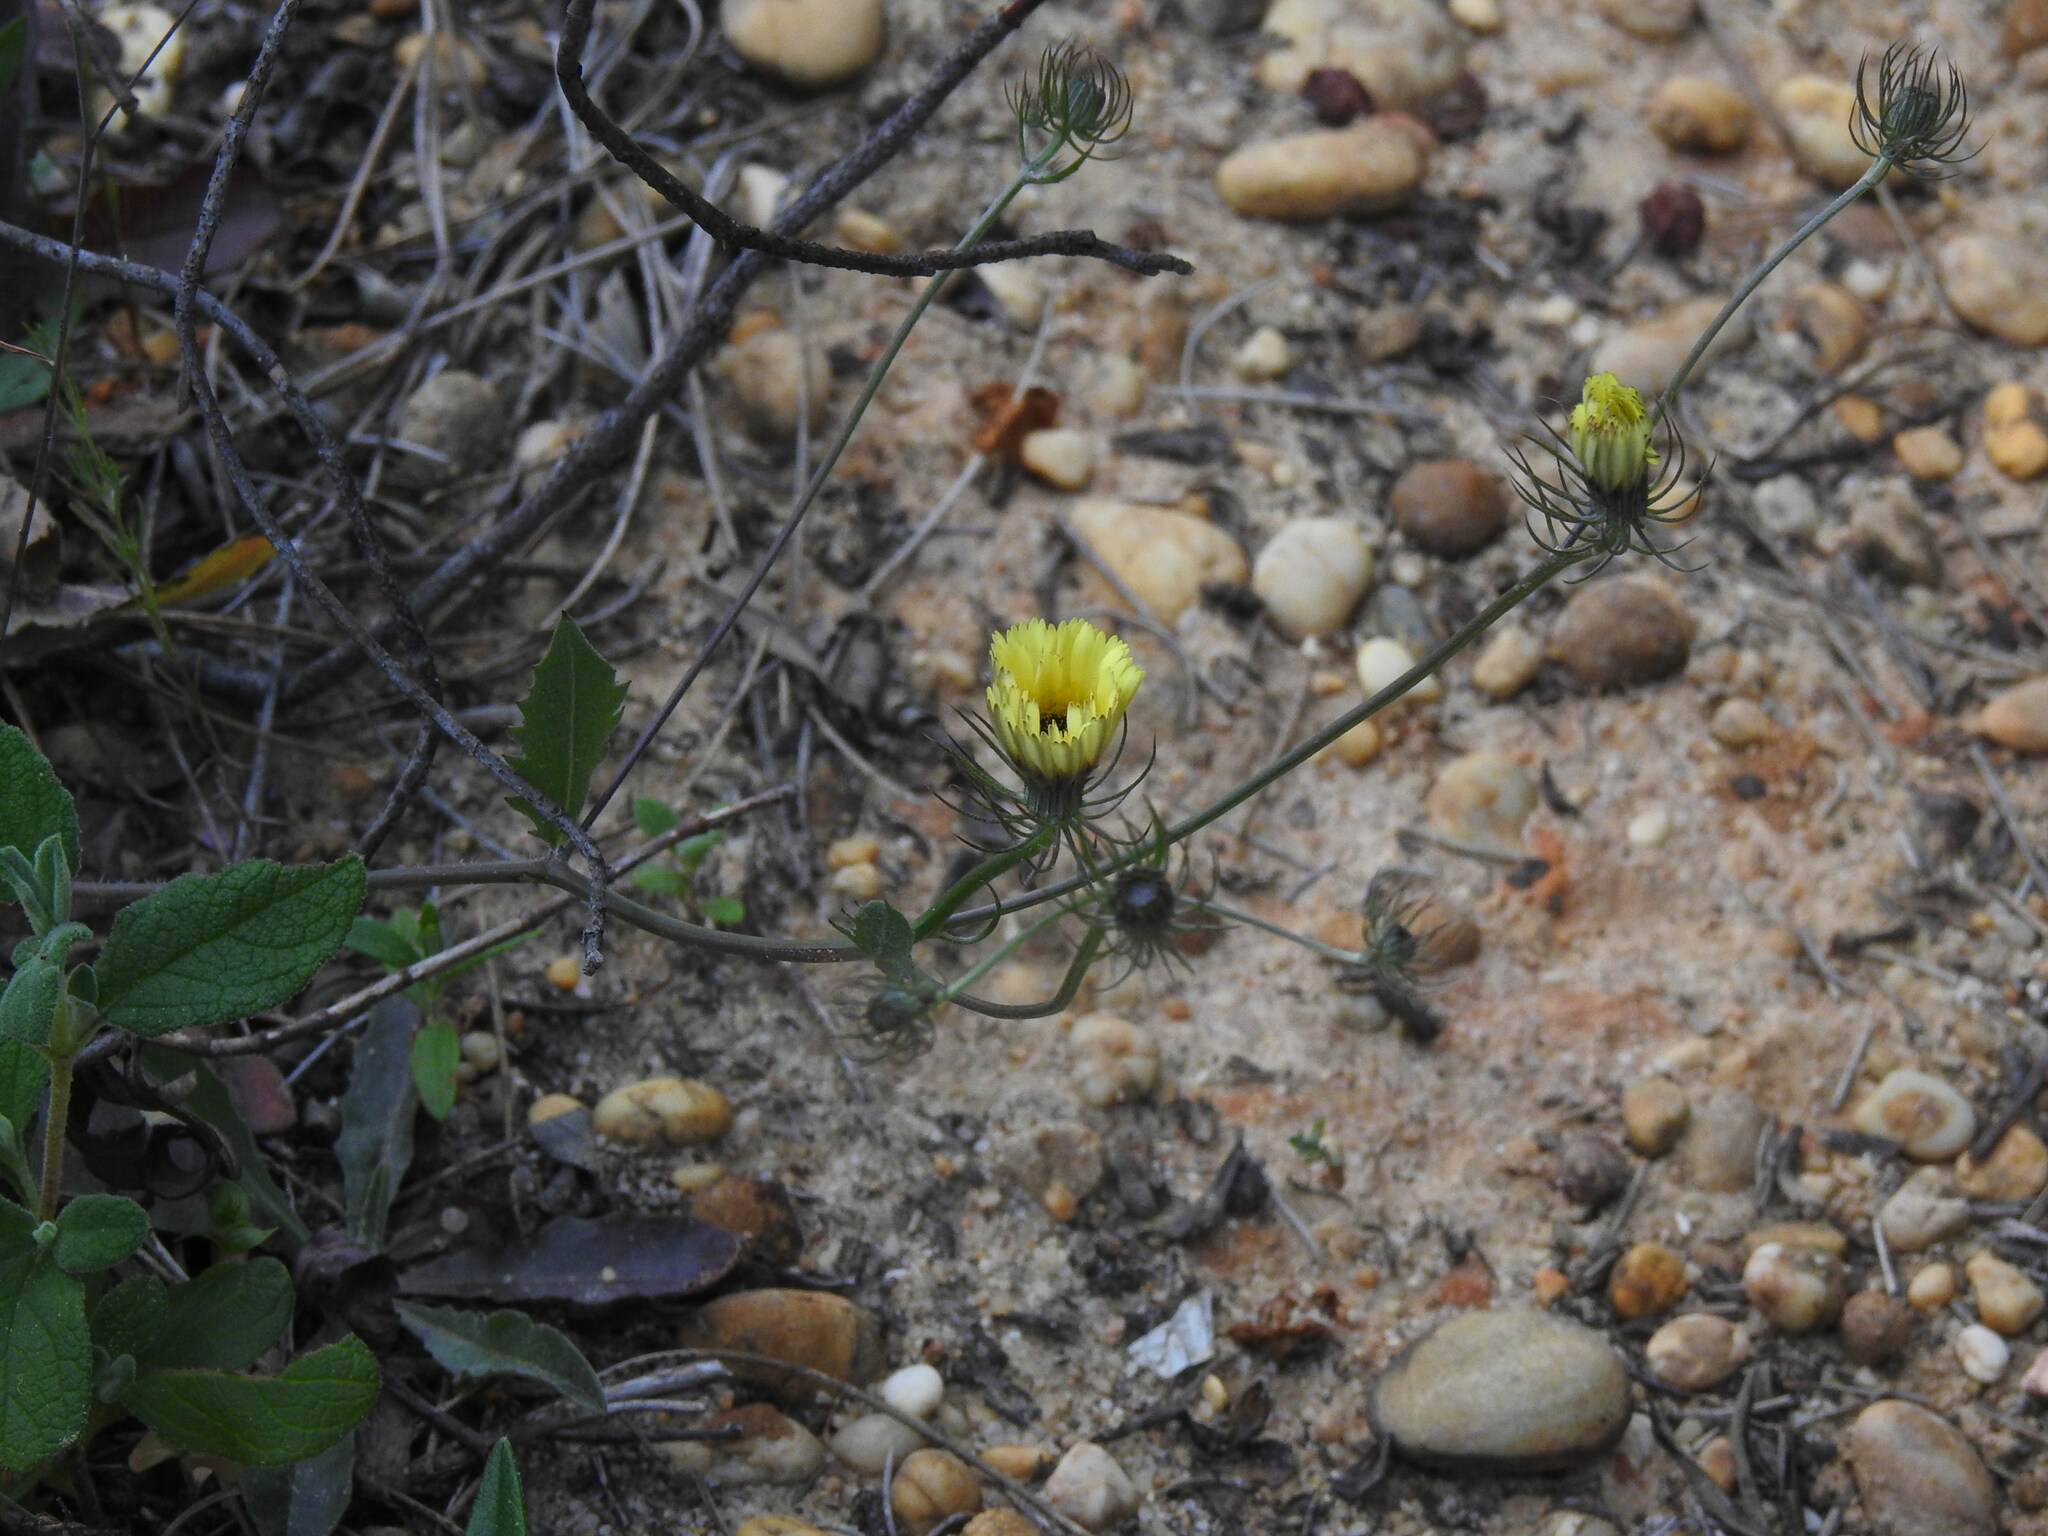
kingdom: Plantae
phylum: Tracheophyta
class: Magnoliopsida
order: Asterales
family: Asteraceae
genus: Tolpis
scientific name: Tolpis barbata
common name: Yellow hawkweed
